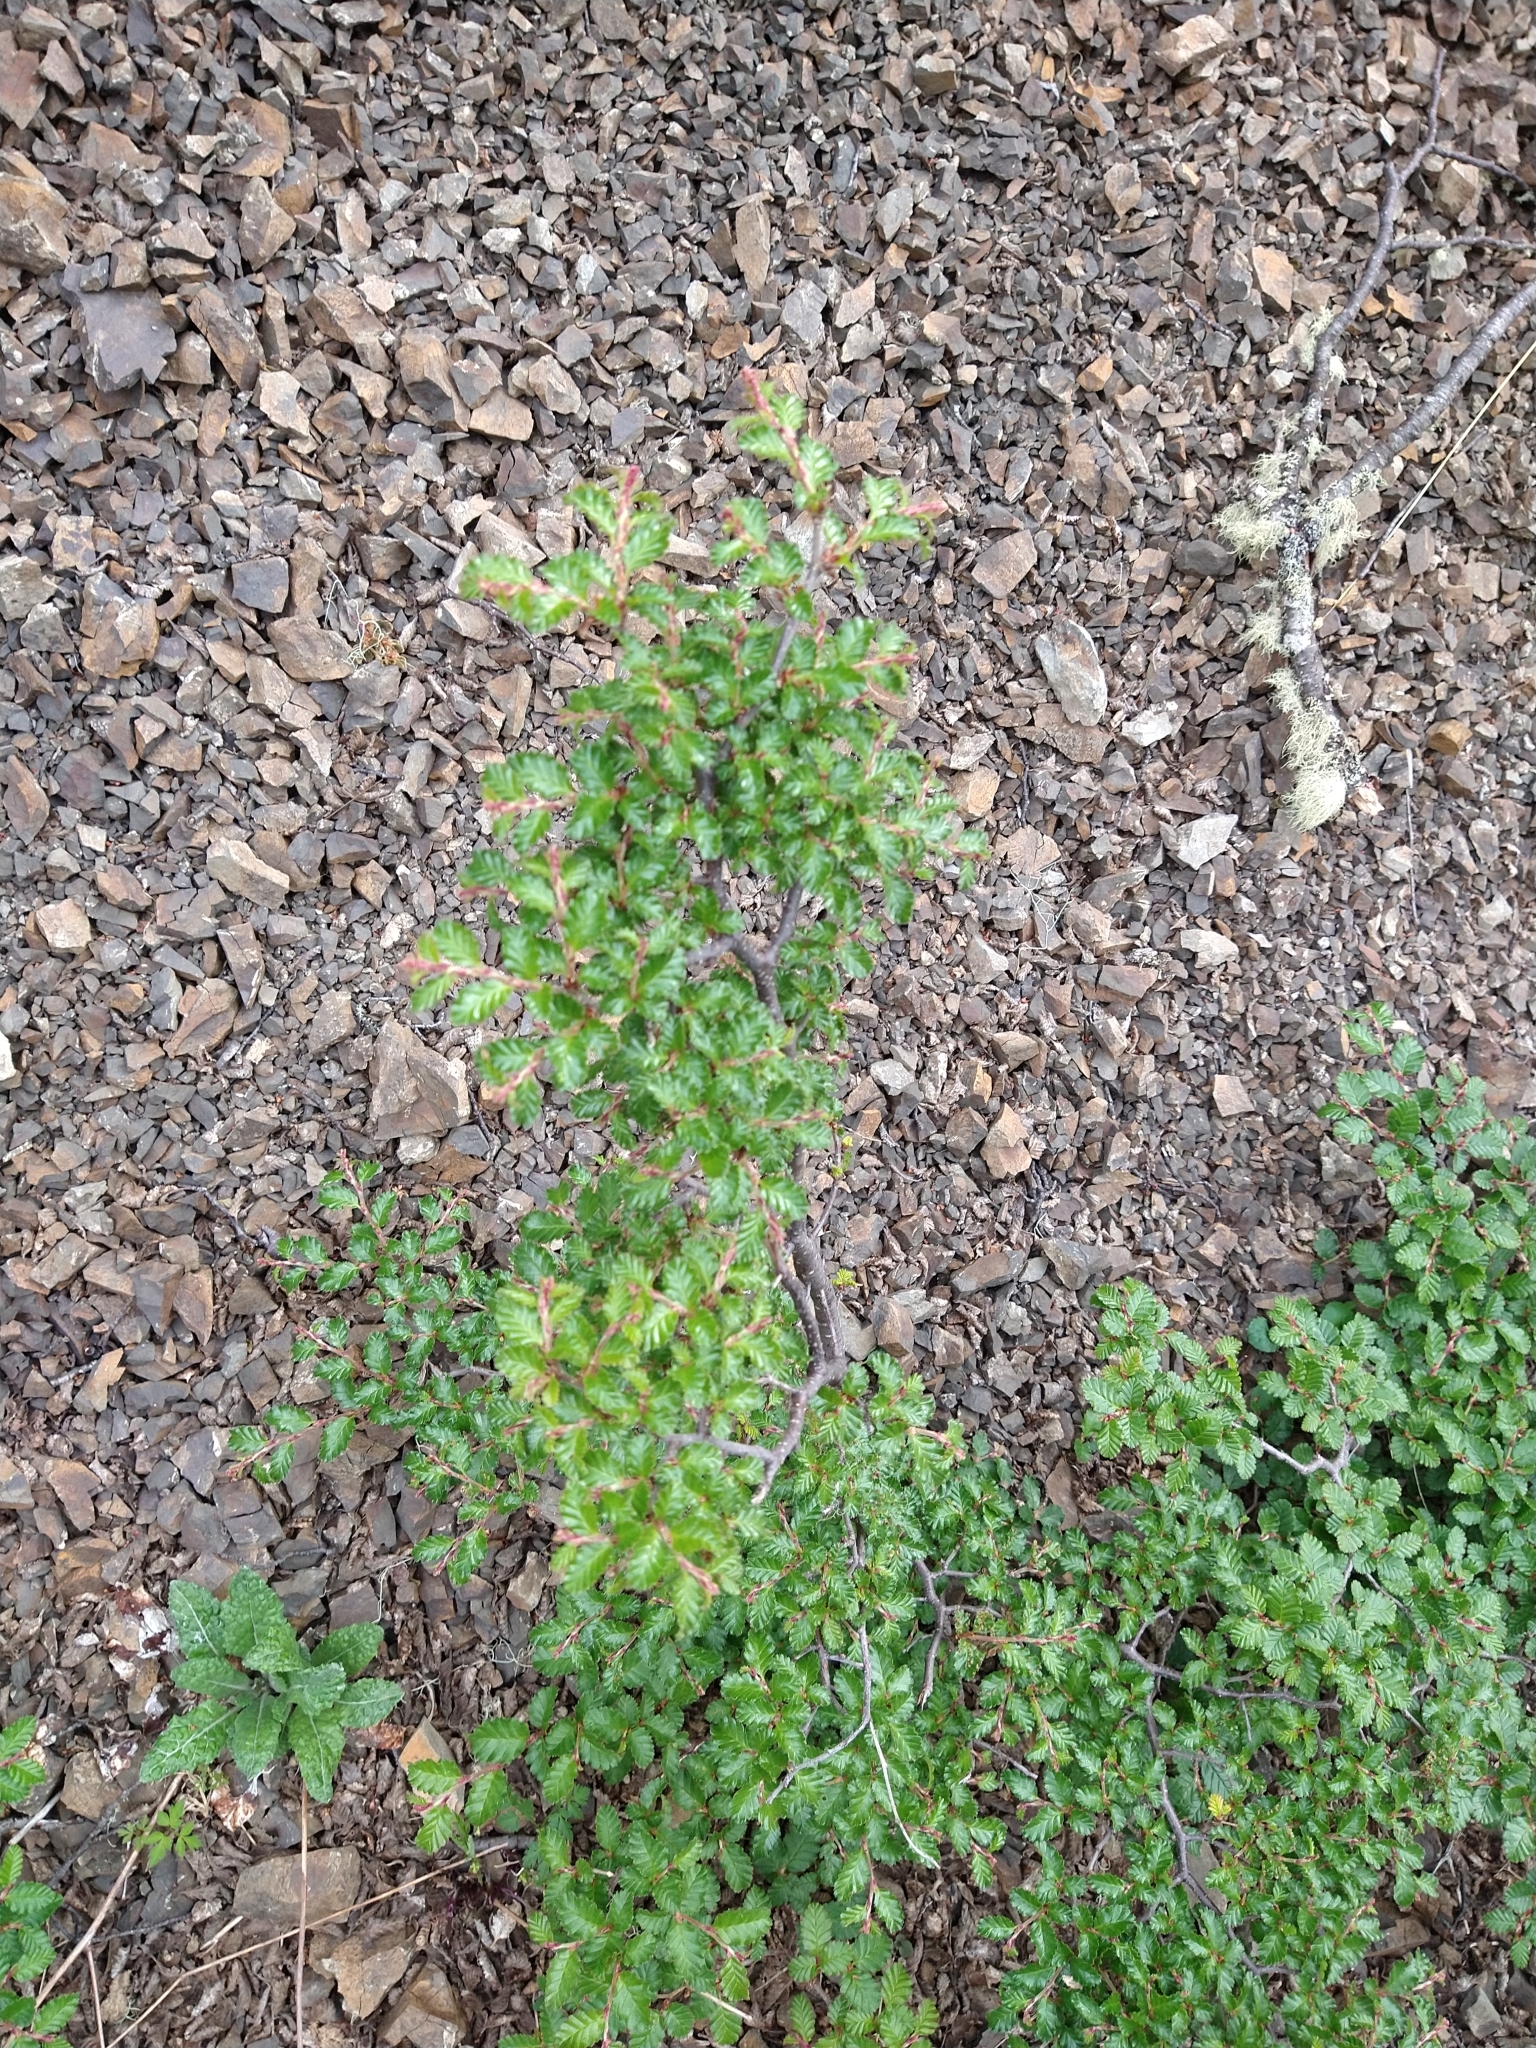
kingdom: Plantae
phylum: Tracheophyta
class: Magnoliopsida
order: Fagales
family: Nothofagaceae
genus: Nothofagus
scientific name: Nothofagus pumilio
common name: Lenga beech
